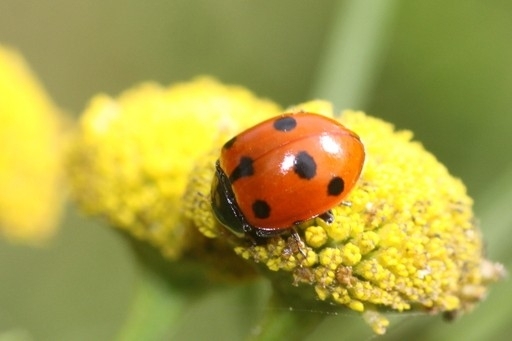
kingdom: Animalia
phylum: Arthropoda
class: Insecta
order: Coleoptera
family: Coccinellidae
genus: Ceratomegilla
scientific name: Ceratomegilla undecimnotata
